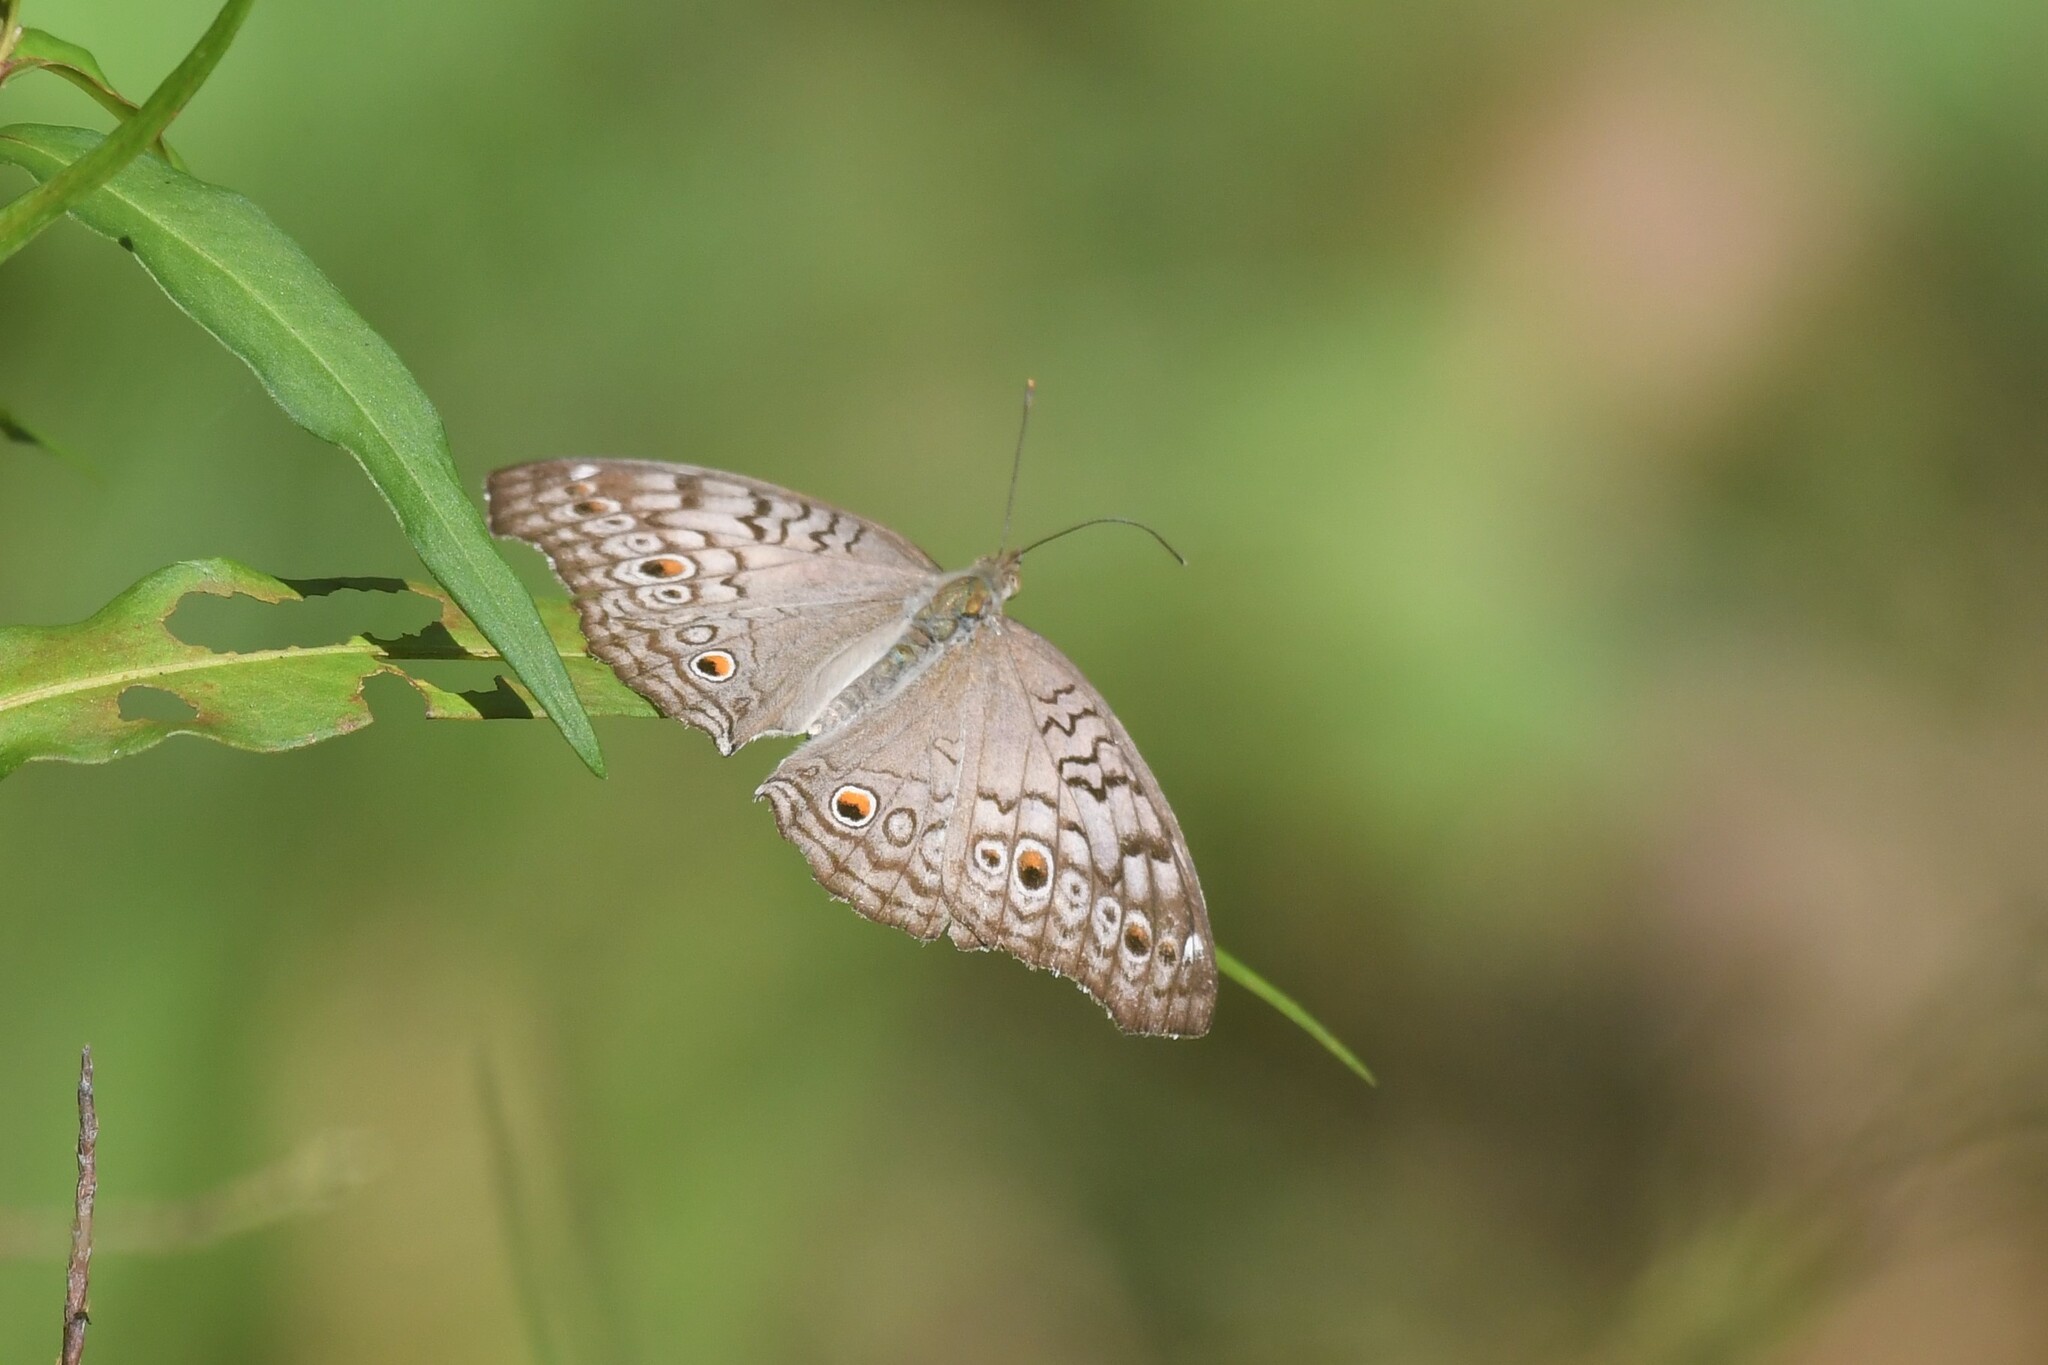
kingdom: Animalia
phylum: Arthropoda
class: Insecta
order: Lepidoptera
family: Nymphalidae
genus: Junonia
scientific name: Junonia atlites
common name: Grey pansy
